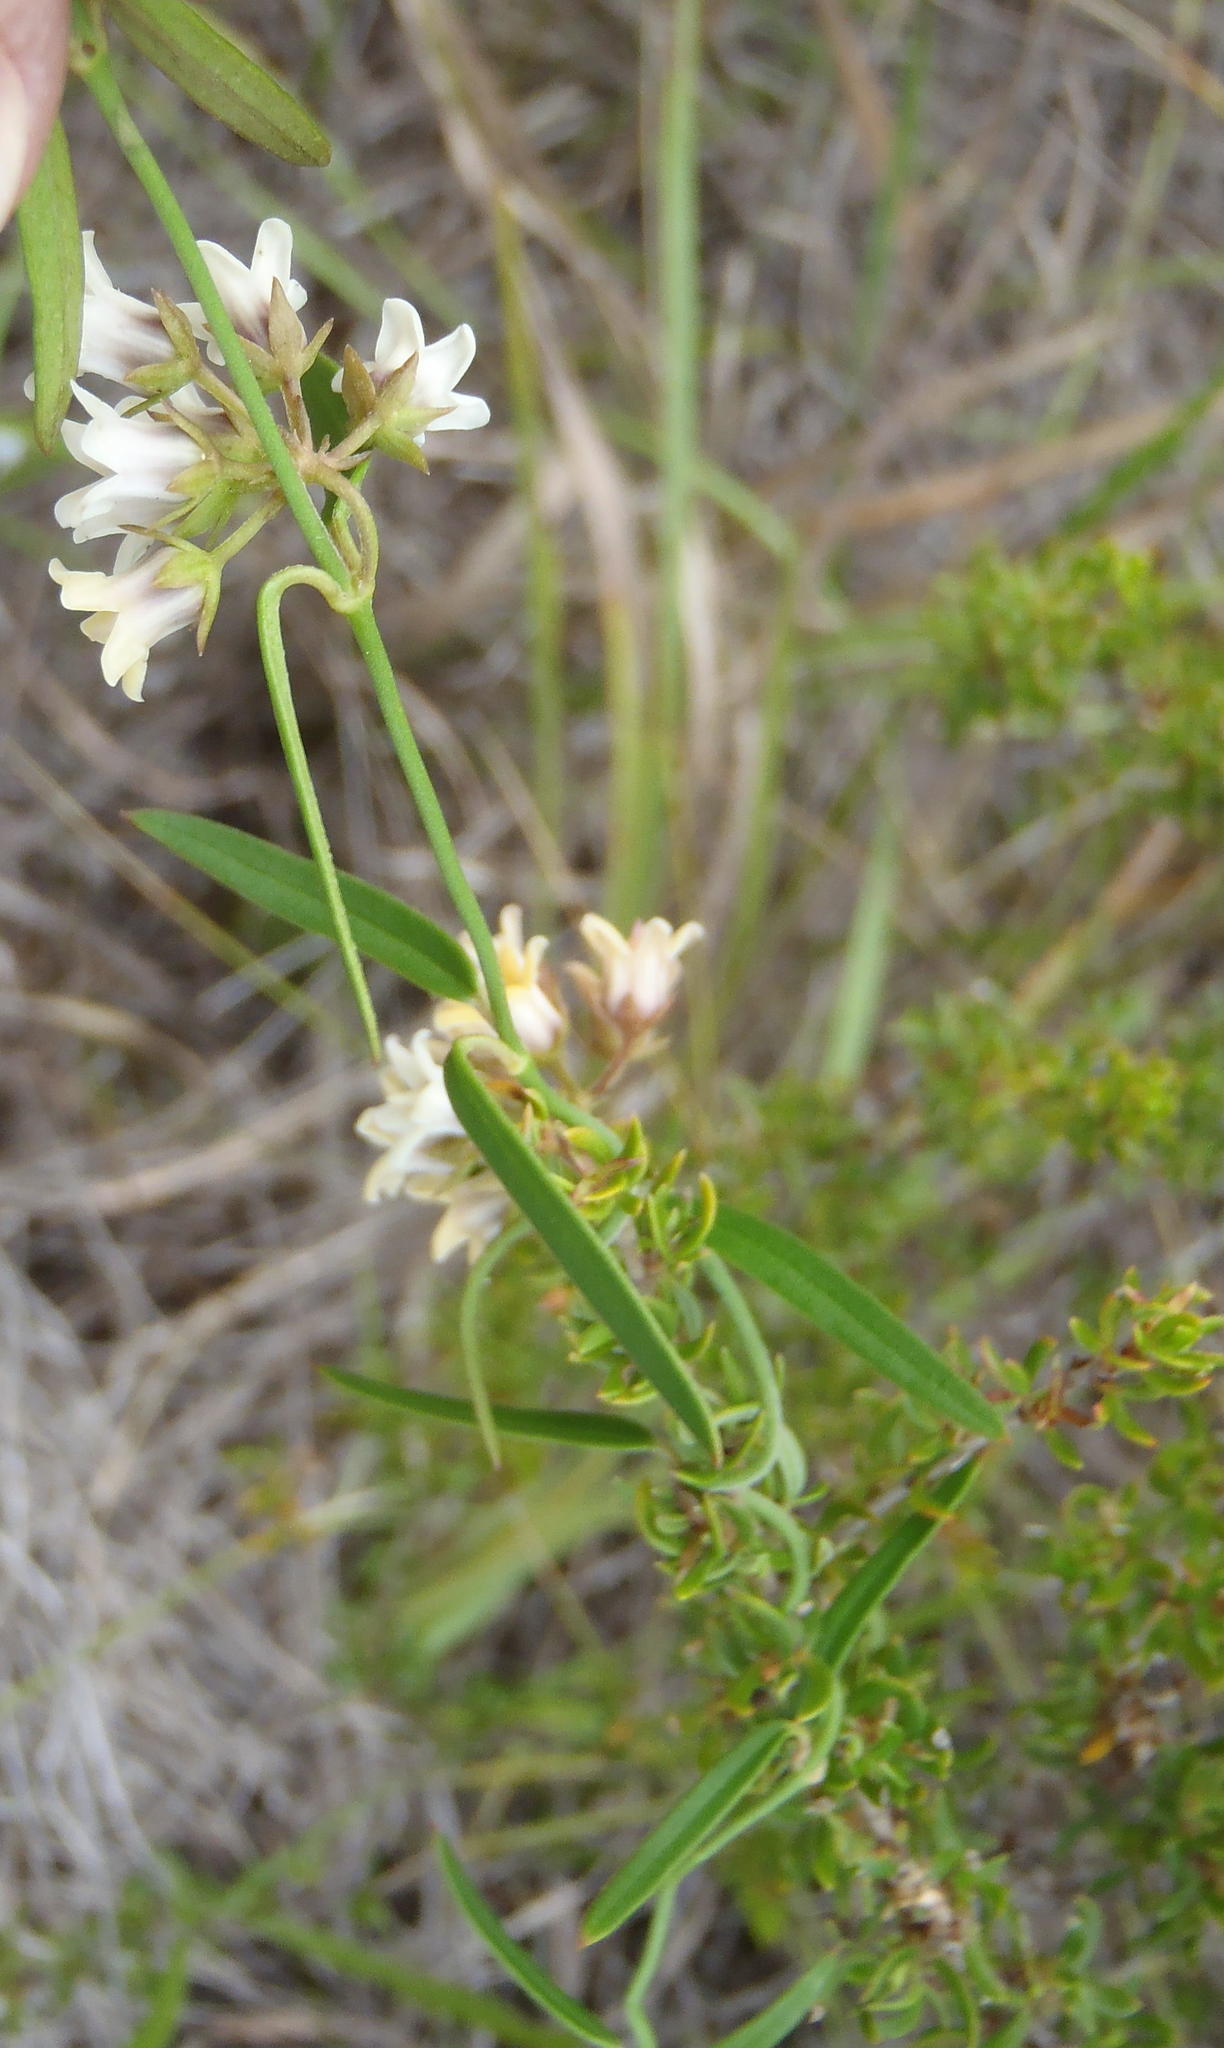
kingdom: Plantae
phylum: Tracheophyta
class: Magnoliopsida
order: Gentianales
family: Apocynaceae
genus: Astephanus
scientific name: Astephanus triflorus
